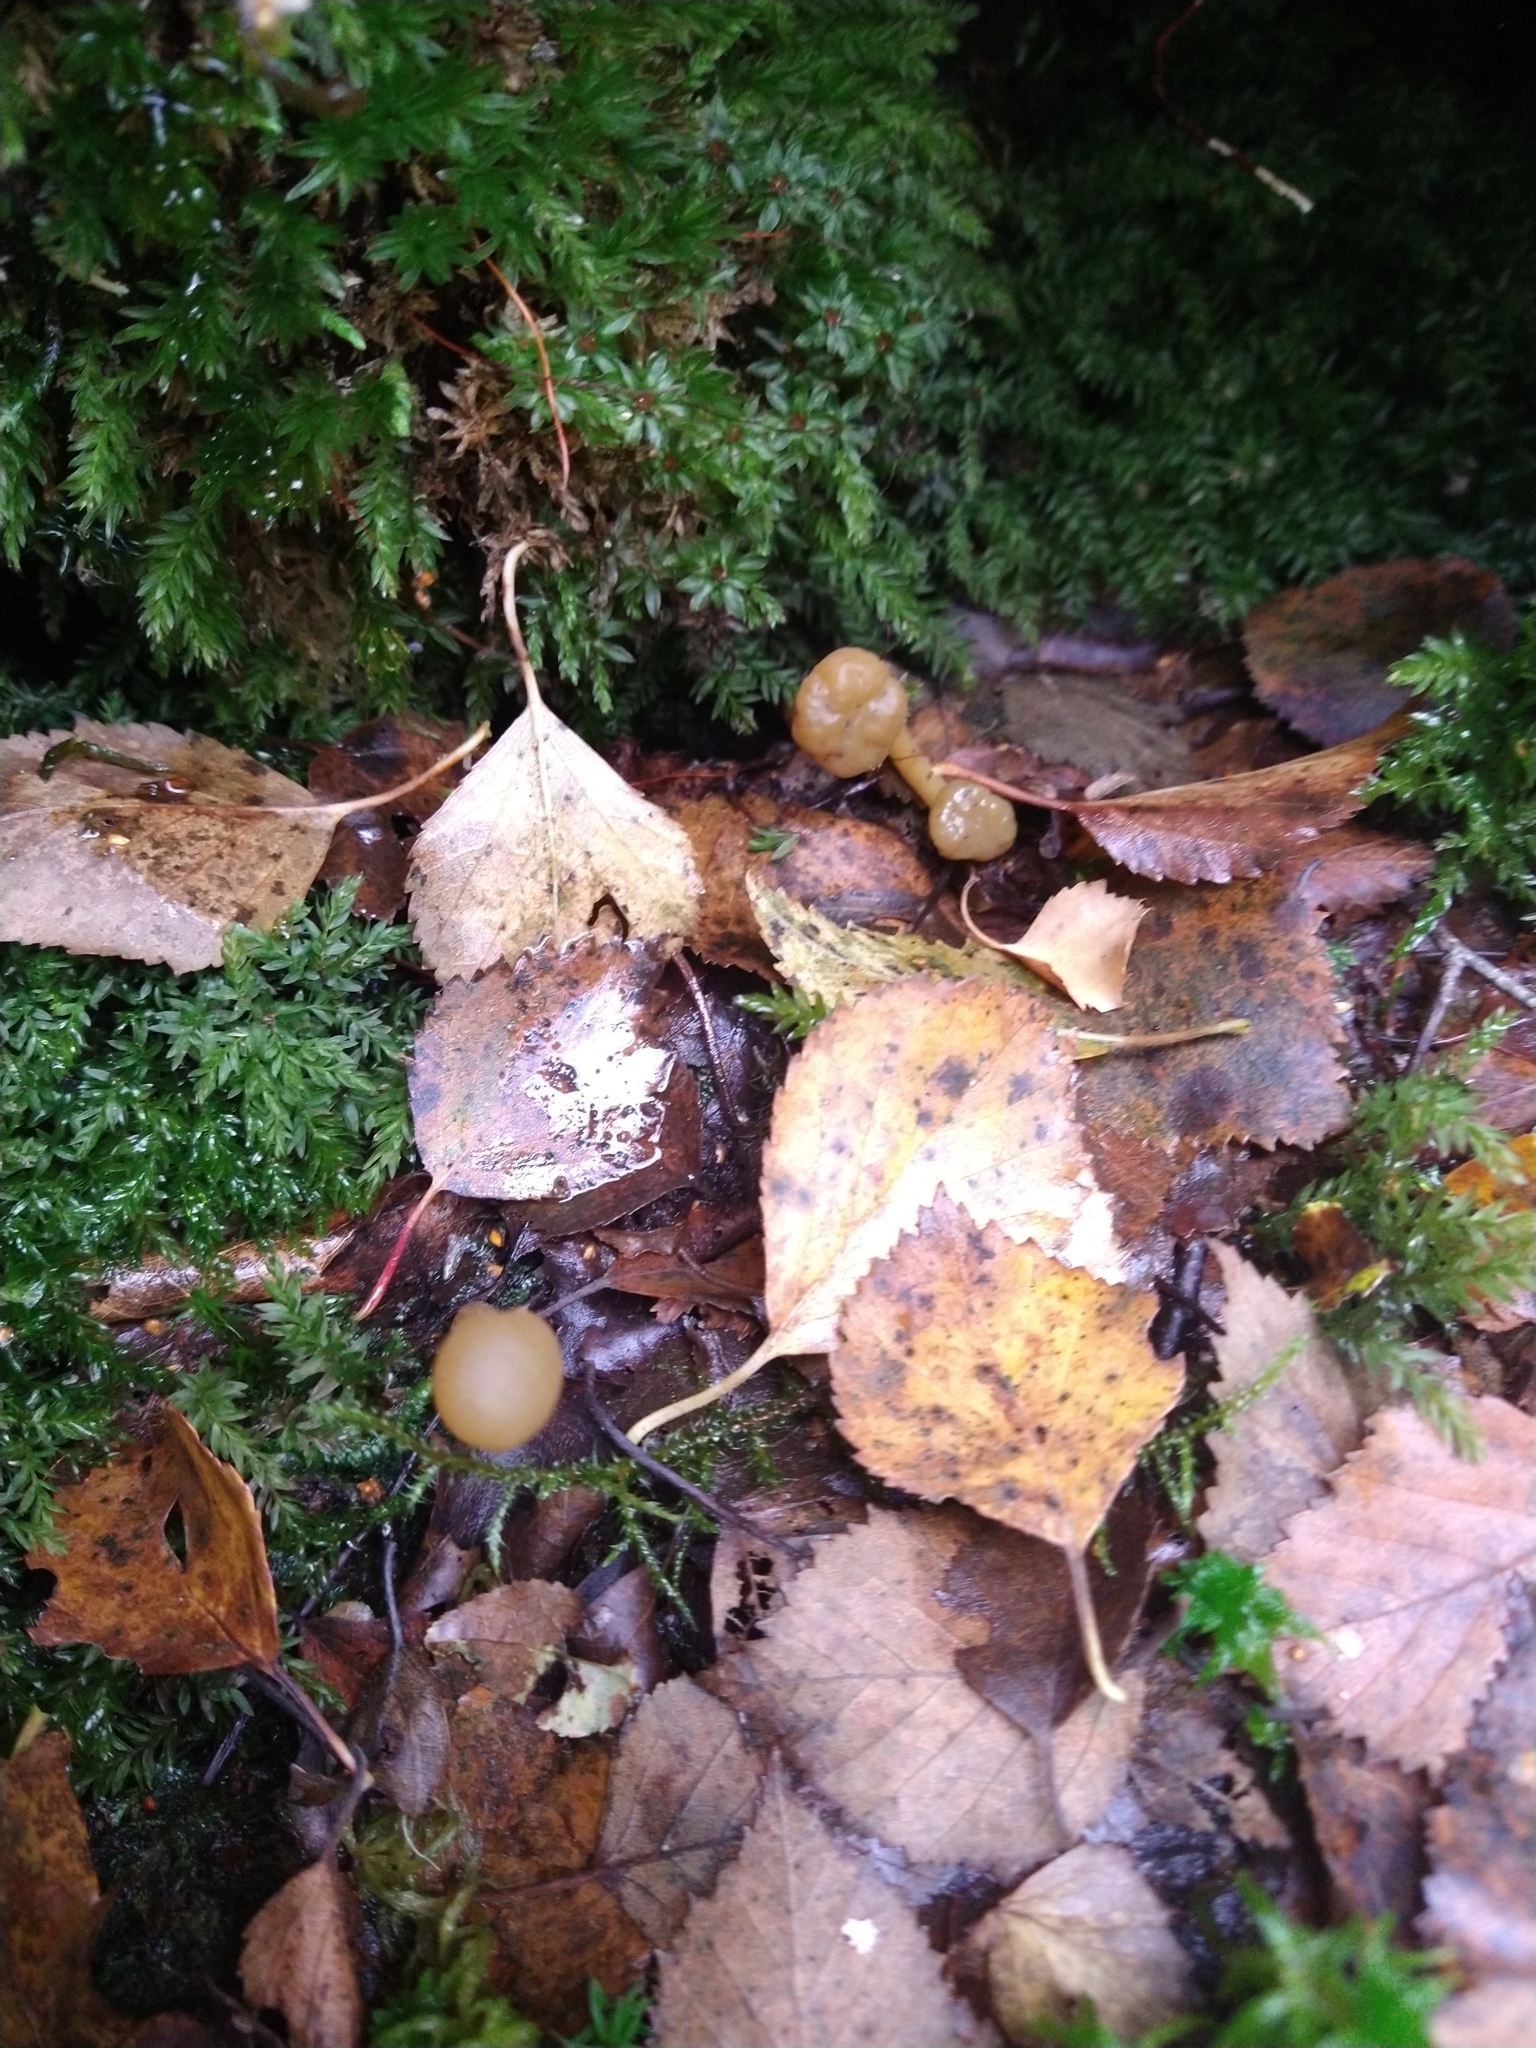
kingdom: Fungi
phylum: Ascomycota
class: Leotiomycetes
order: Leotiales
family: Leotiaceae
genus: Leotia
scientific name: Leotia lubrica
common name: Jellybaby
